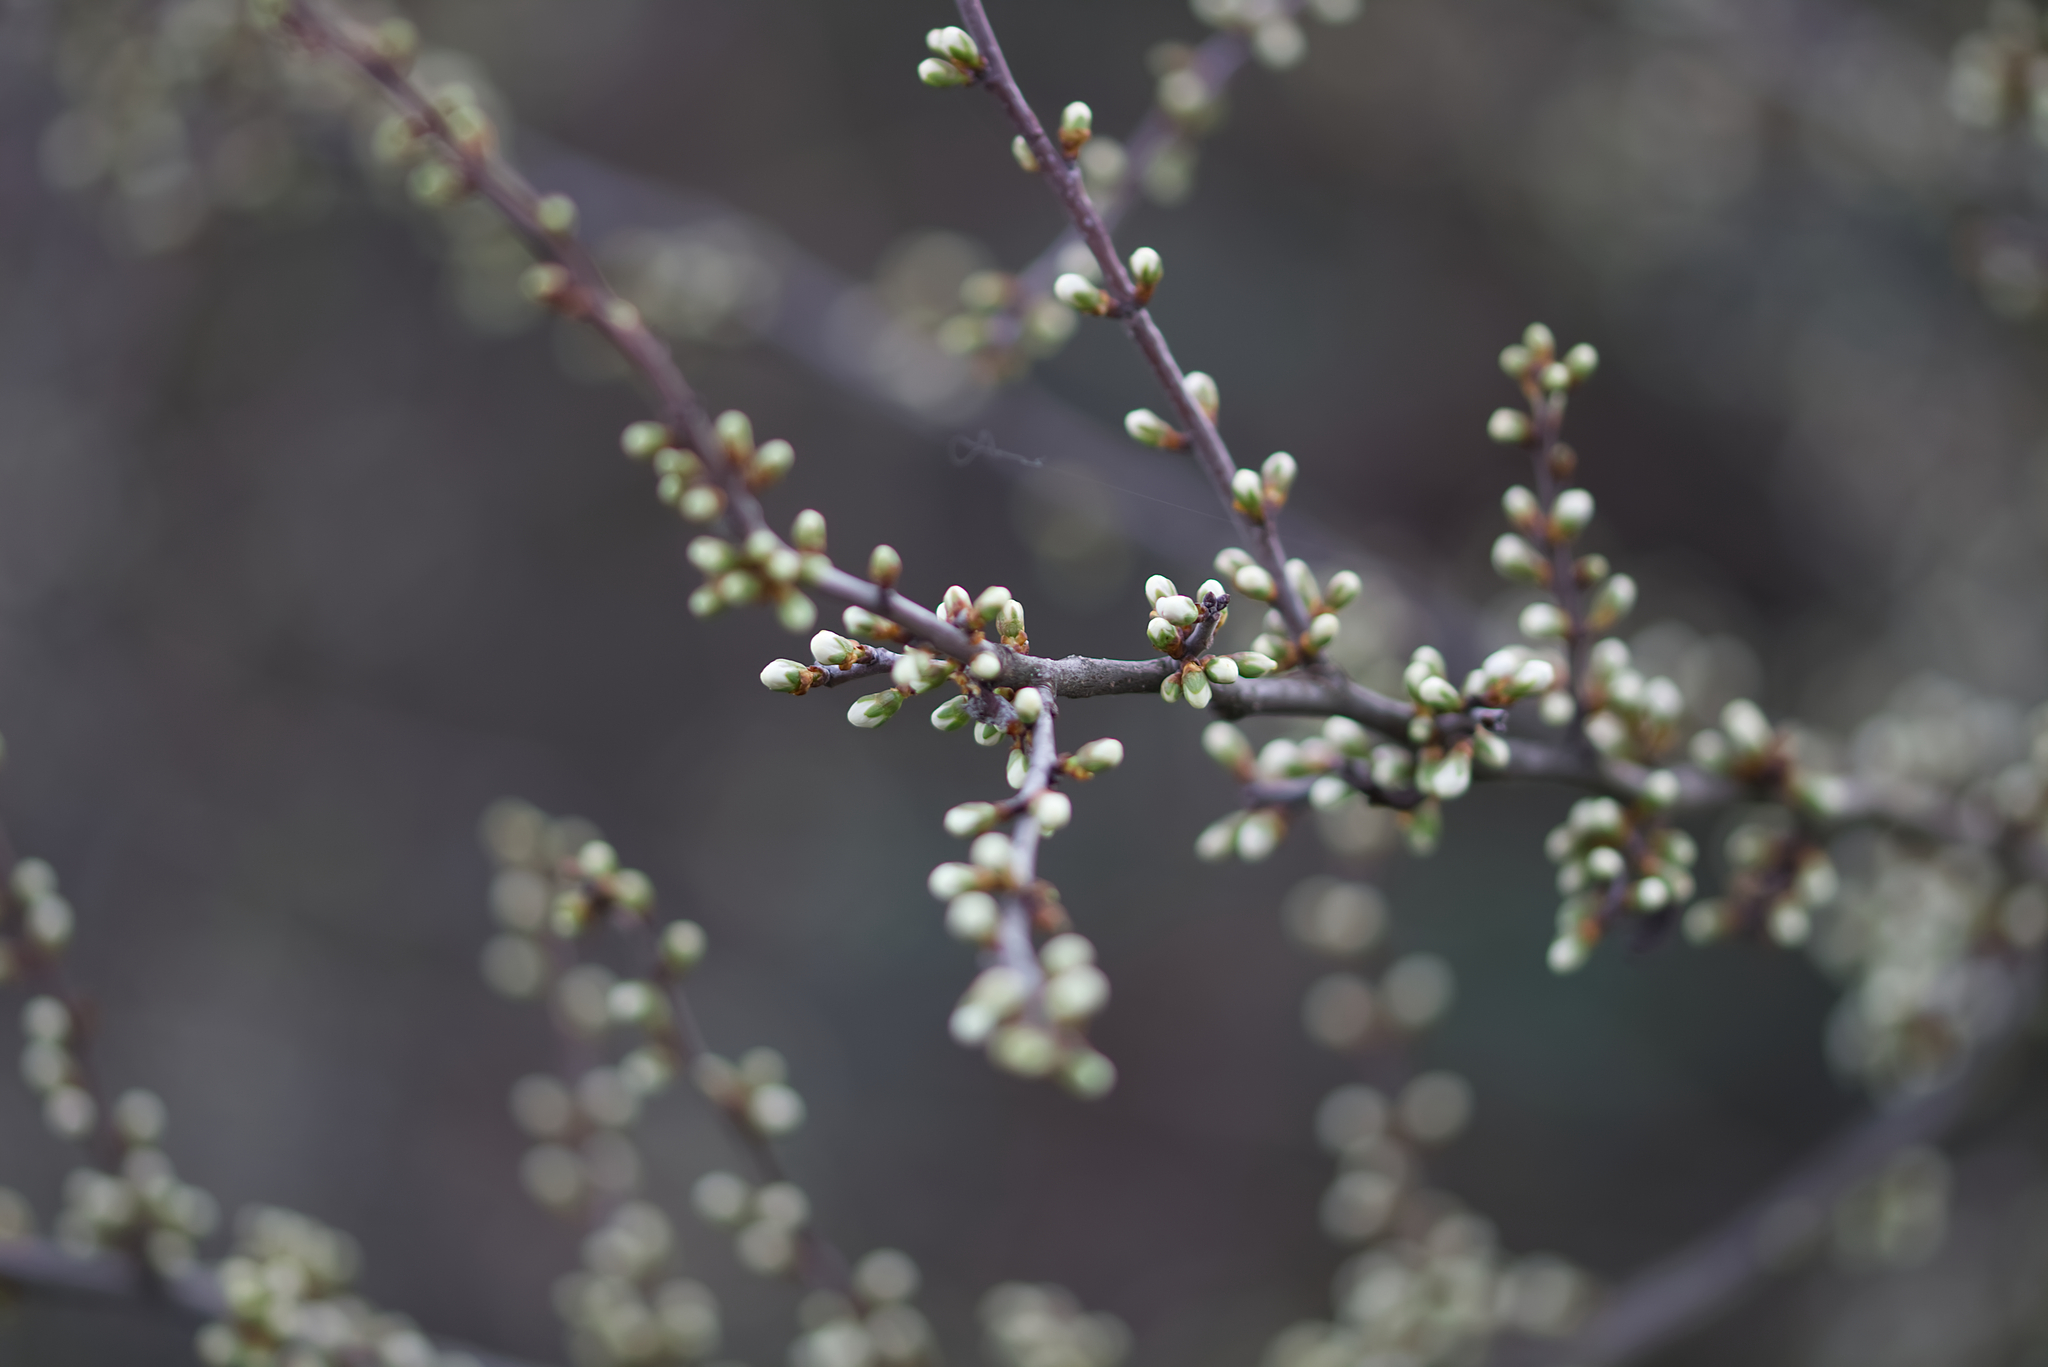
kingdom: Plantae
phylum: Tracheophyta
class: Magnoliopsida
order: Rosales
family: Rosaceae
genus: Prunus
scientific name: Prunus spinosa
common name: Blackthorn
